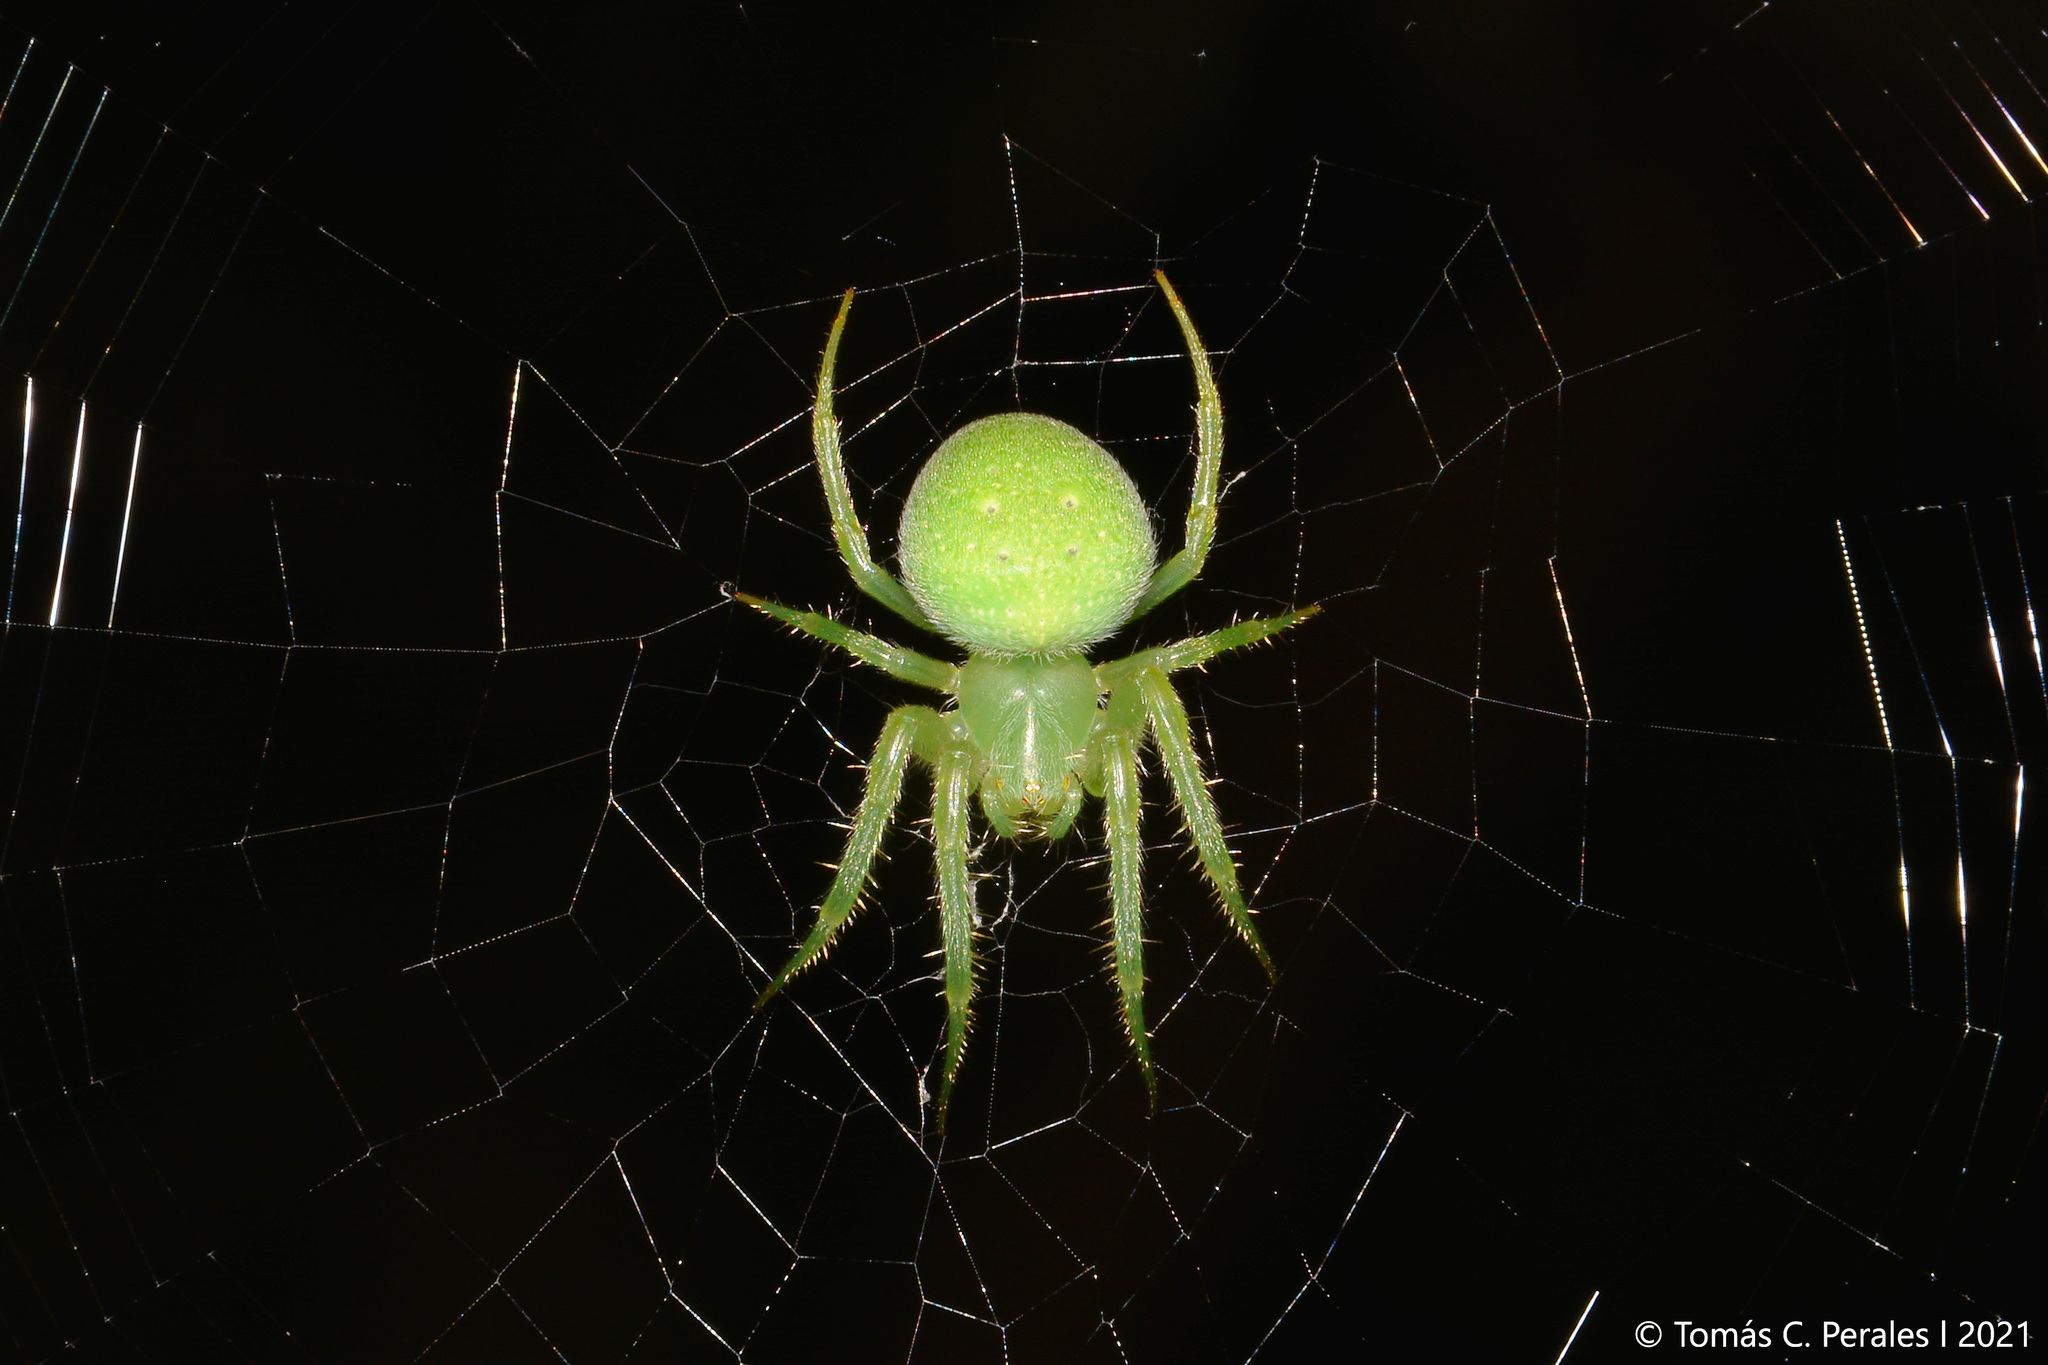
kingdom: Animalia
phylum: Arthropoda
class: Arachnida
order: Araneae
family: Araneidae
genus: Araneus
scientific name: Araneus uniformis
